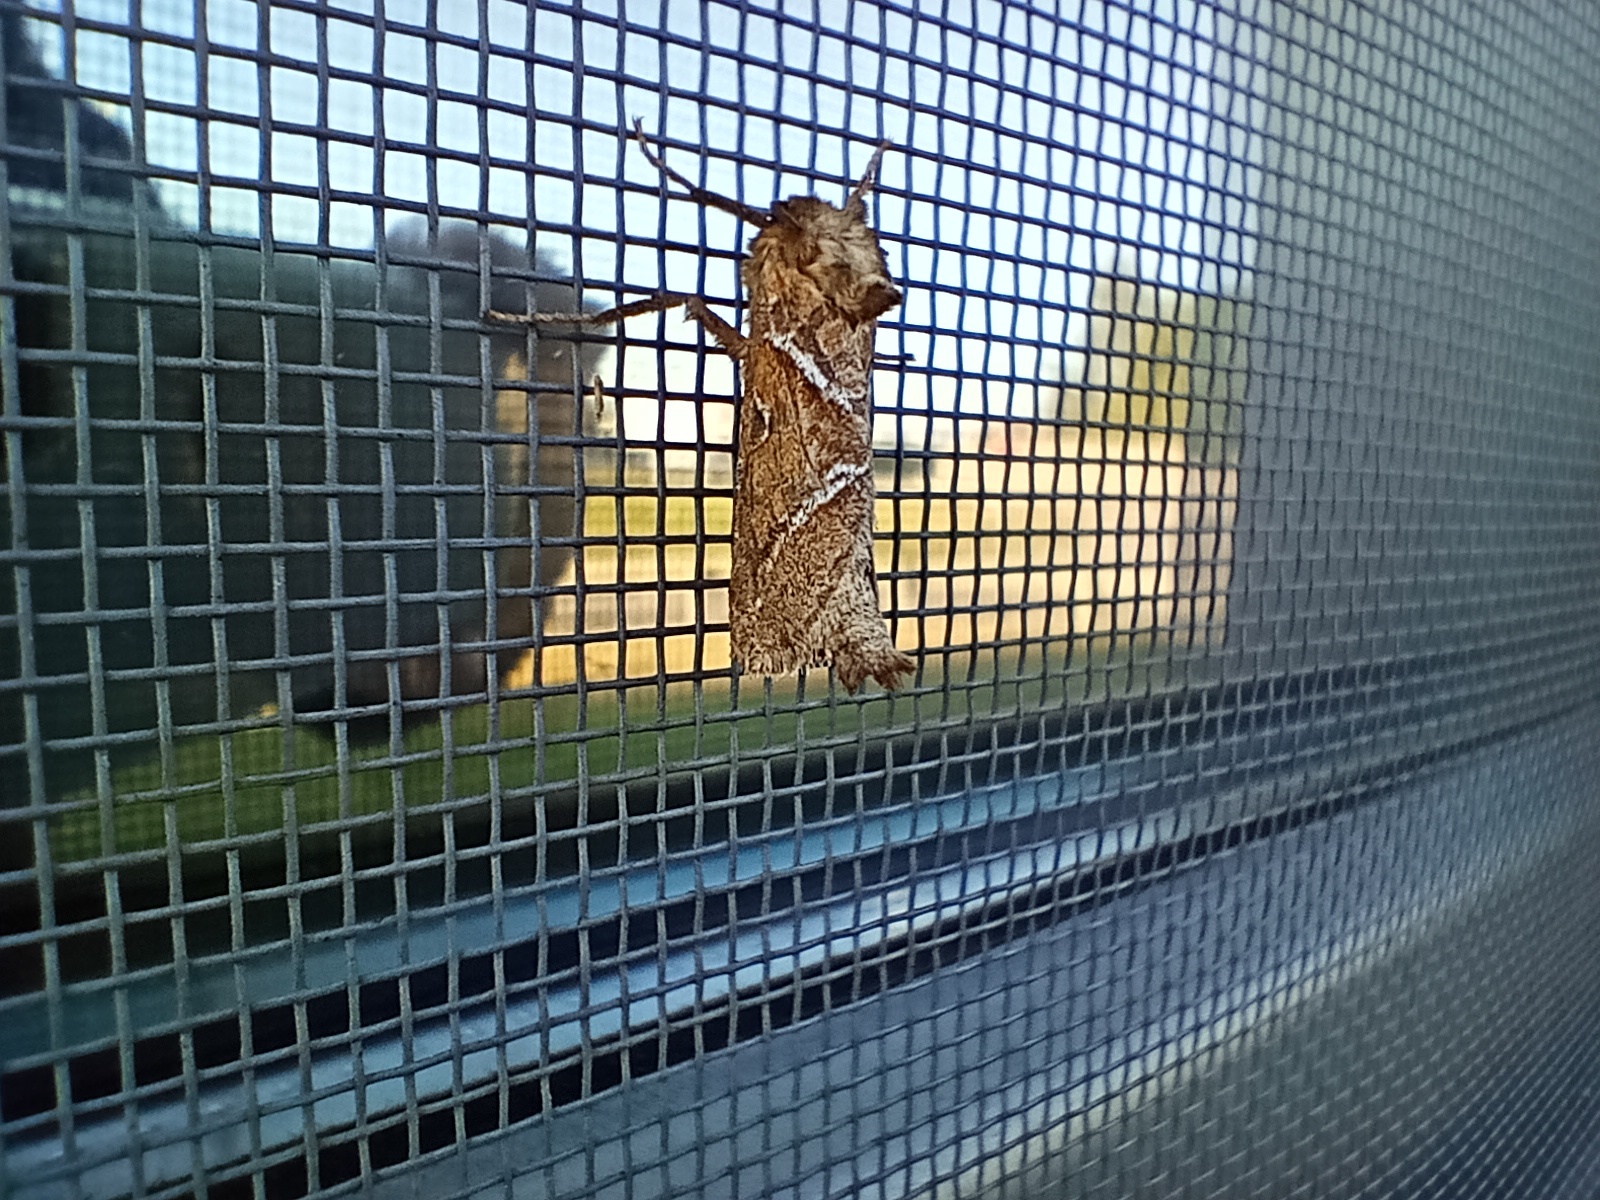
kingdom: Animalia
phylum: Arthropoda
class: Insecta
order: Lepidoptera
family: Hepialidae
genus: Triodia
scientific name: Triodia sylvina
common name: Orange swift
